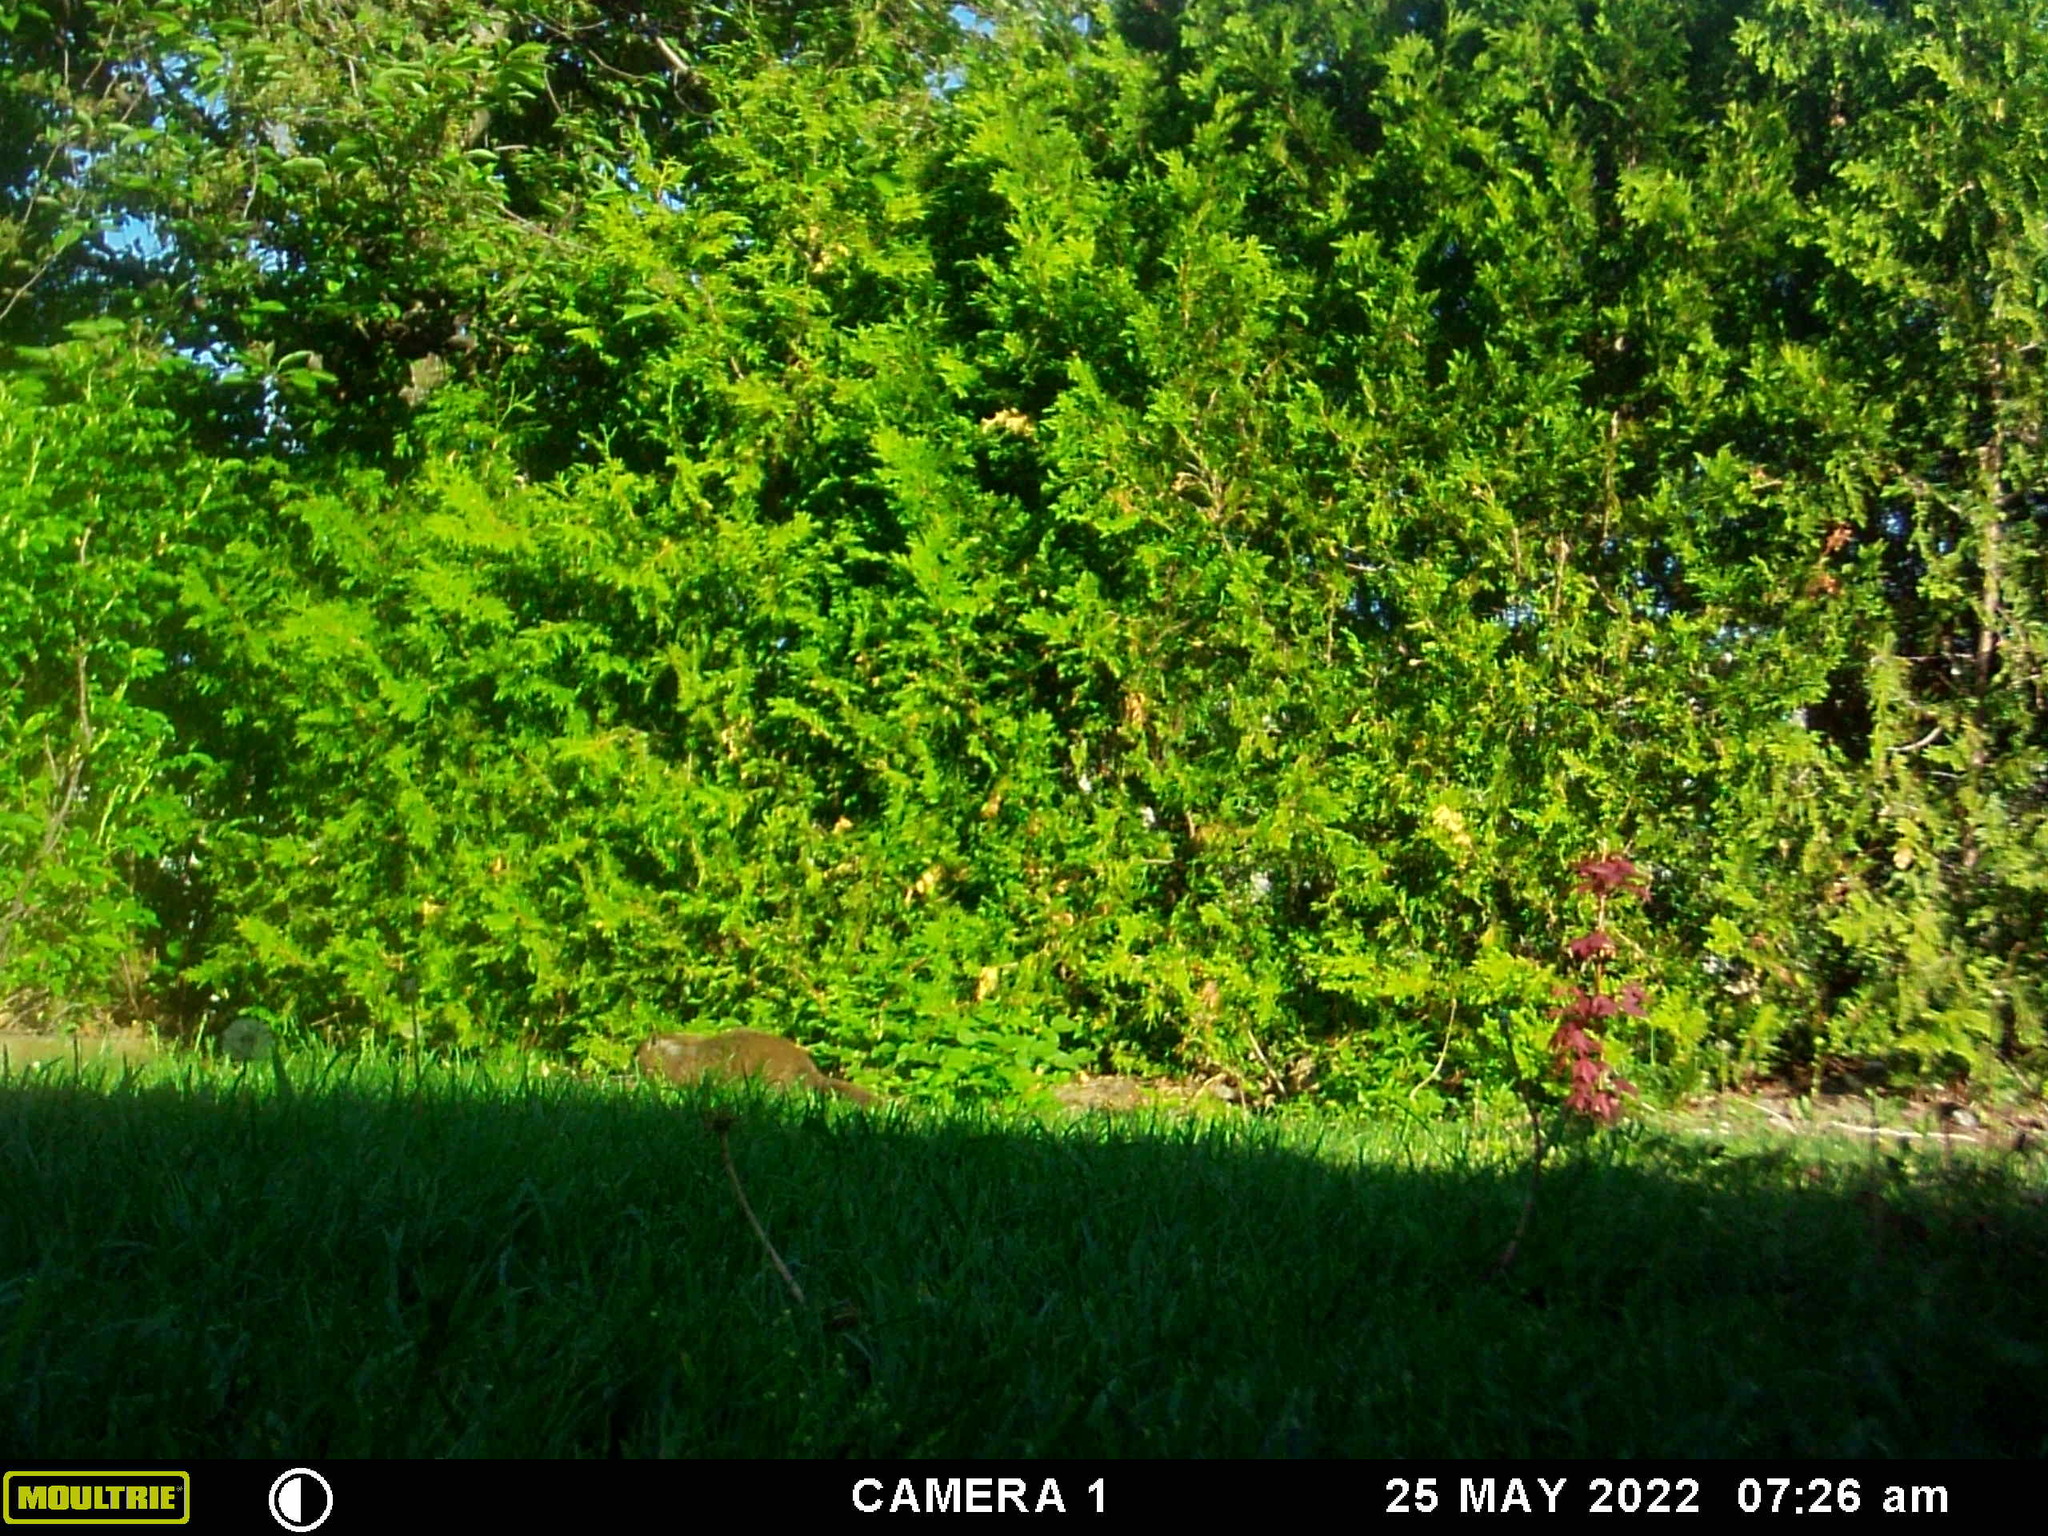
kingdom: Animalia
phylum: Chordata
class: Mammalia
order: Rodentia
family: Sciuridae
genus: Marmota
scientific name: Marmota monax
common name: Groundhog
